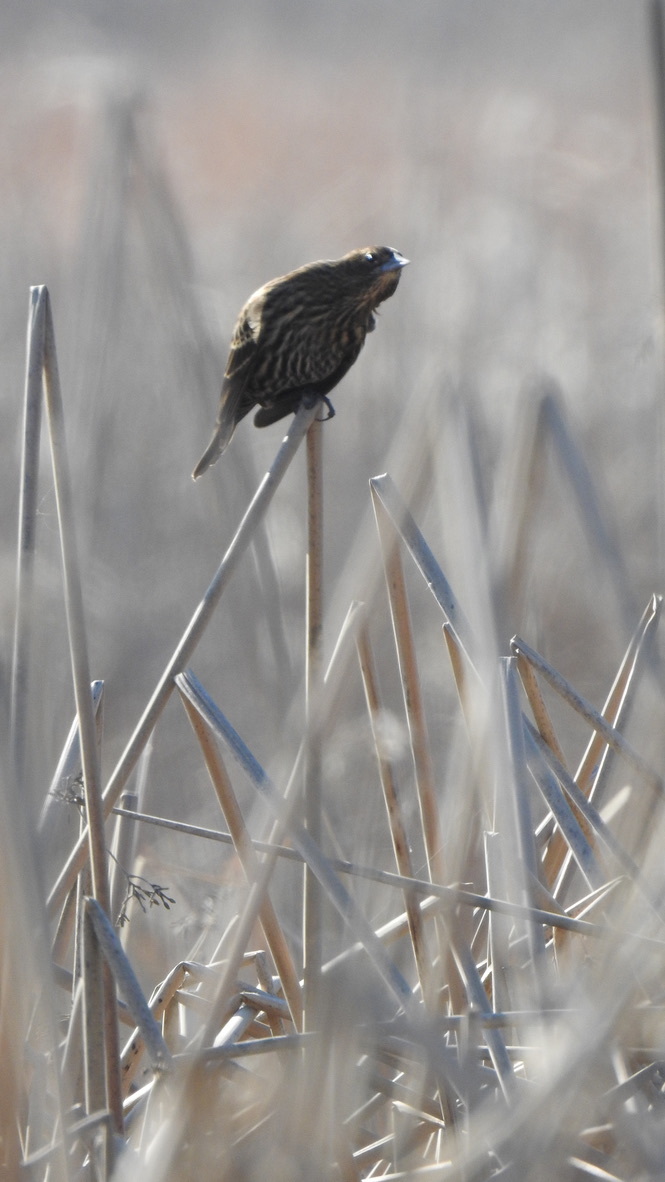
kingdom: Animalia
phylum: Chordata
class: Aves
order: Passeriformes
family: Icteridae
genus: Agelaius
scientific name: Agelaius phoeniceus
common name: Red-winged blackbird
